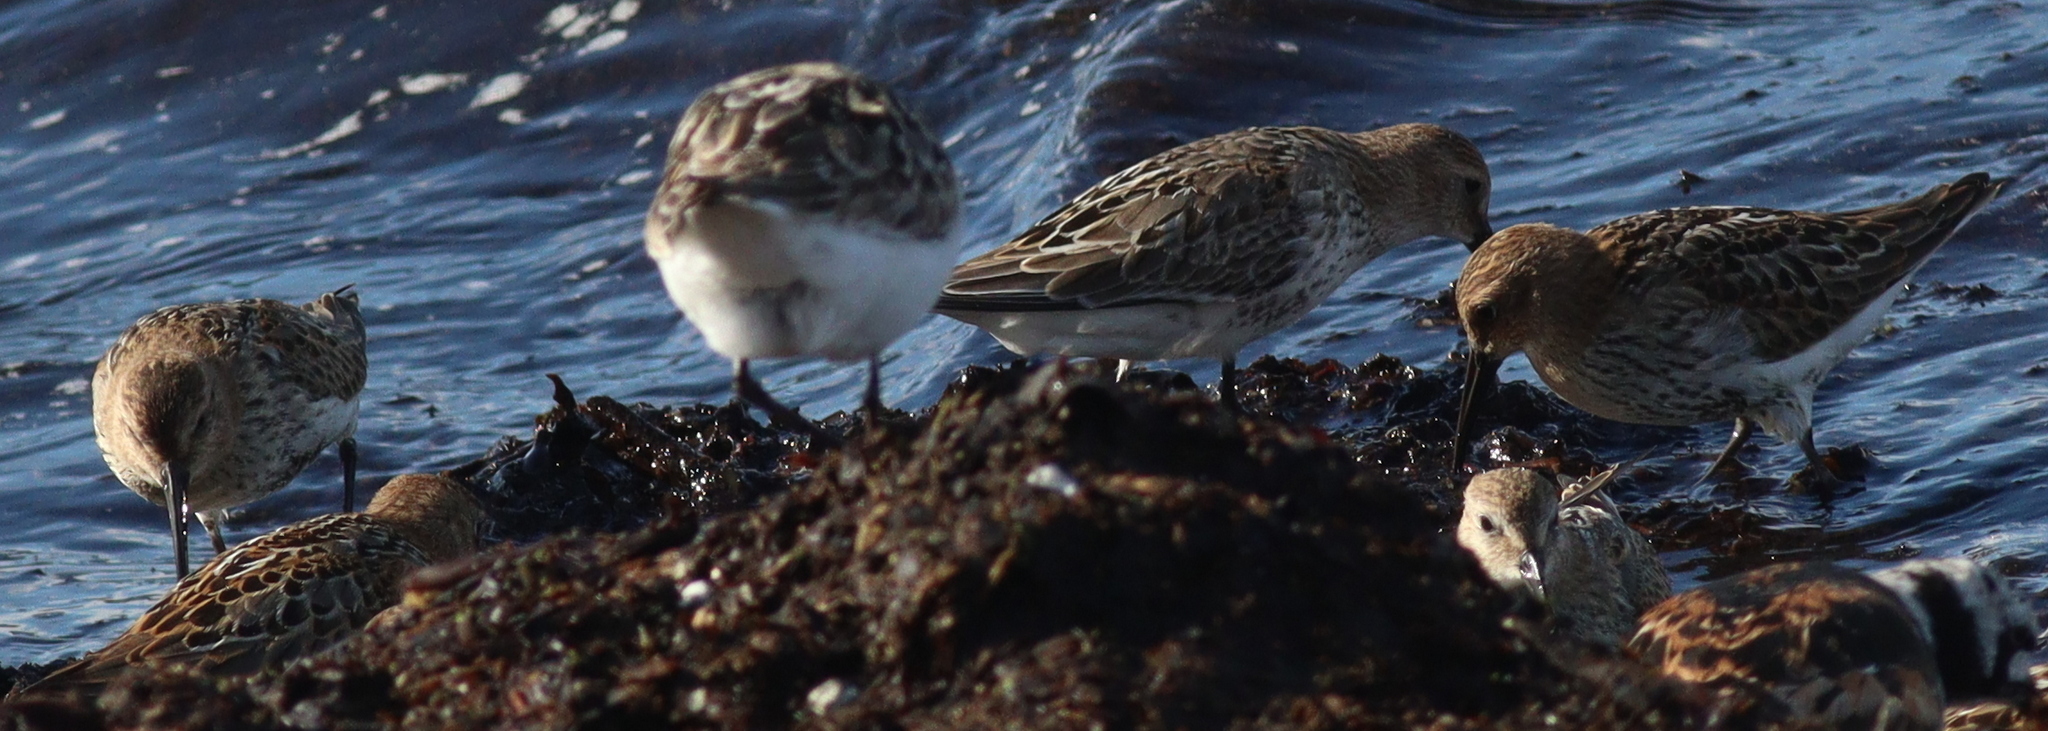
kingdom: Animalia
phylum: Chordata
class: Aves
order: Charadriiformes
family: Scolopacidae
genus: Calidris
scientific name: Calidris alpina
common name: Dunlin
